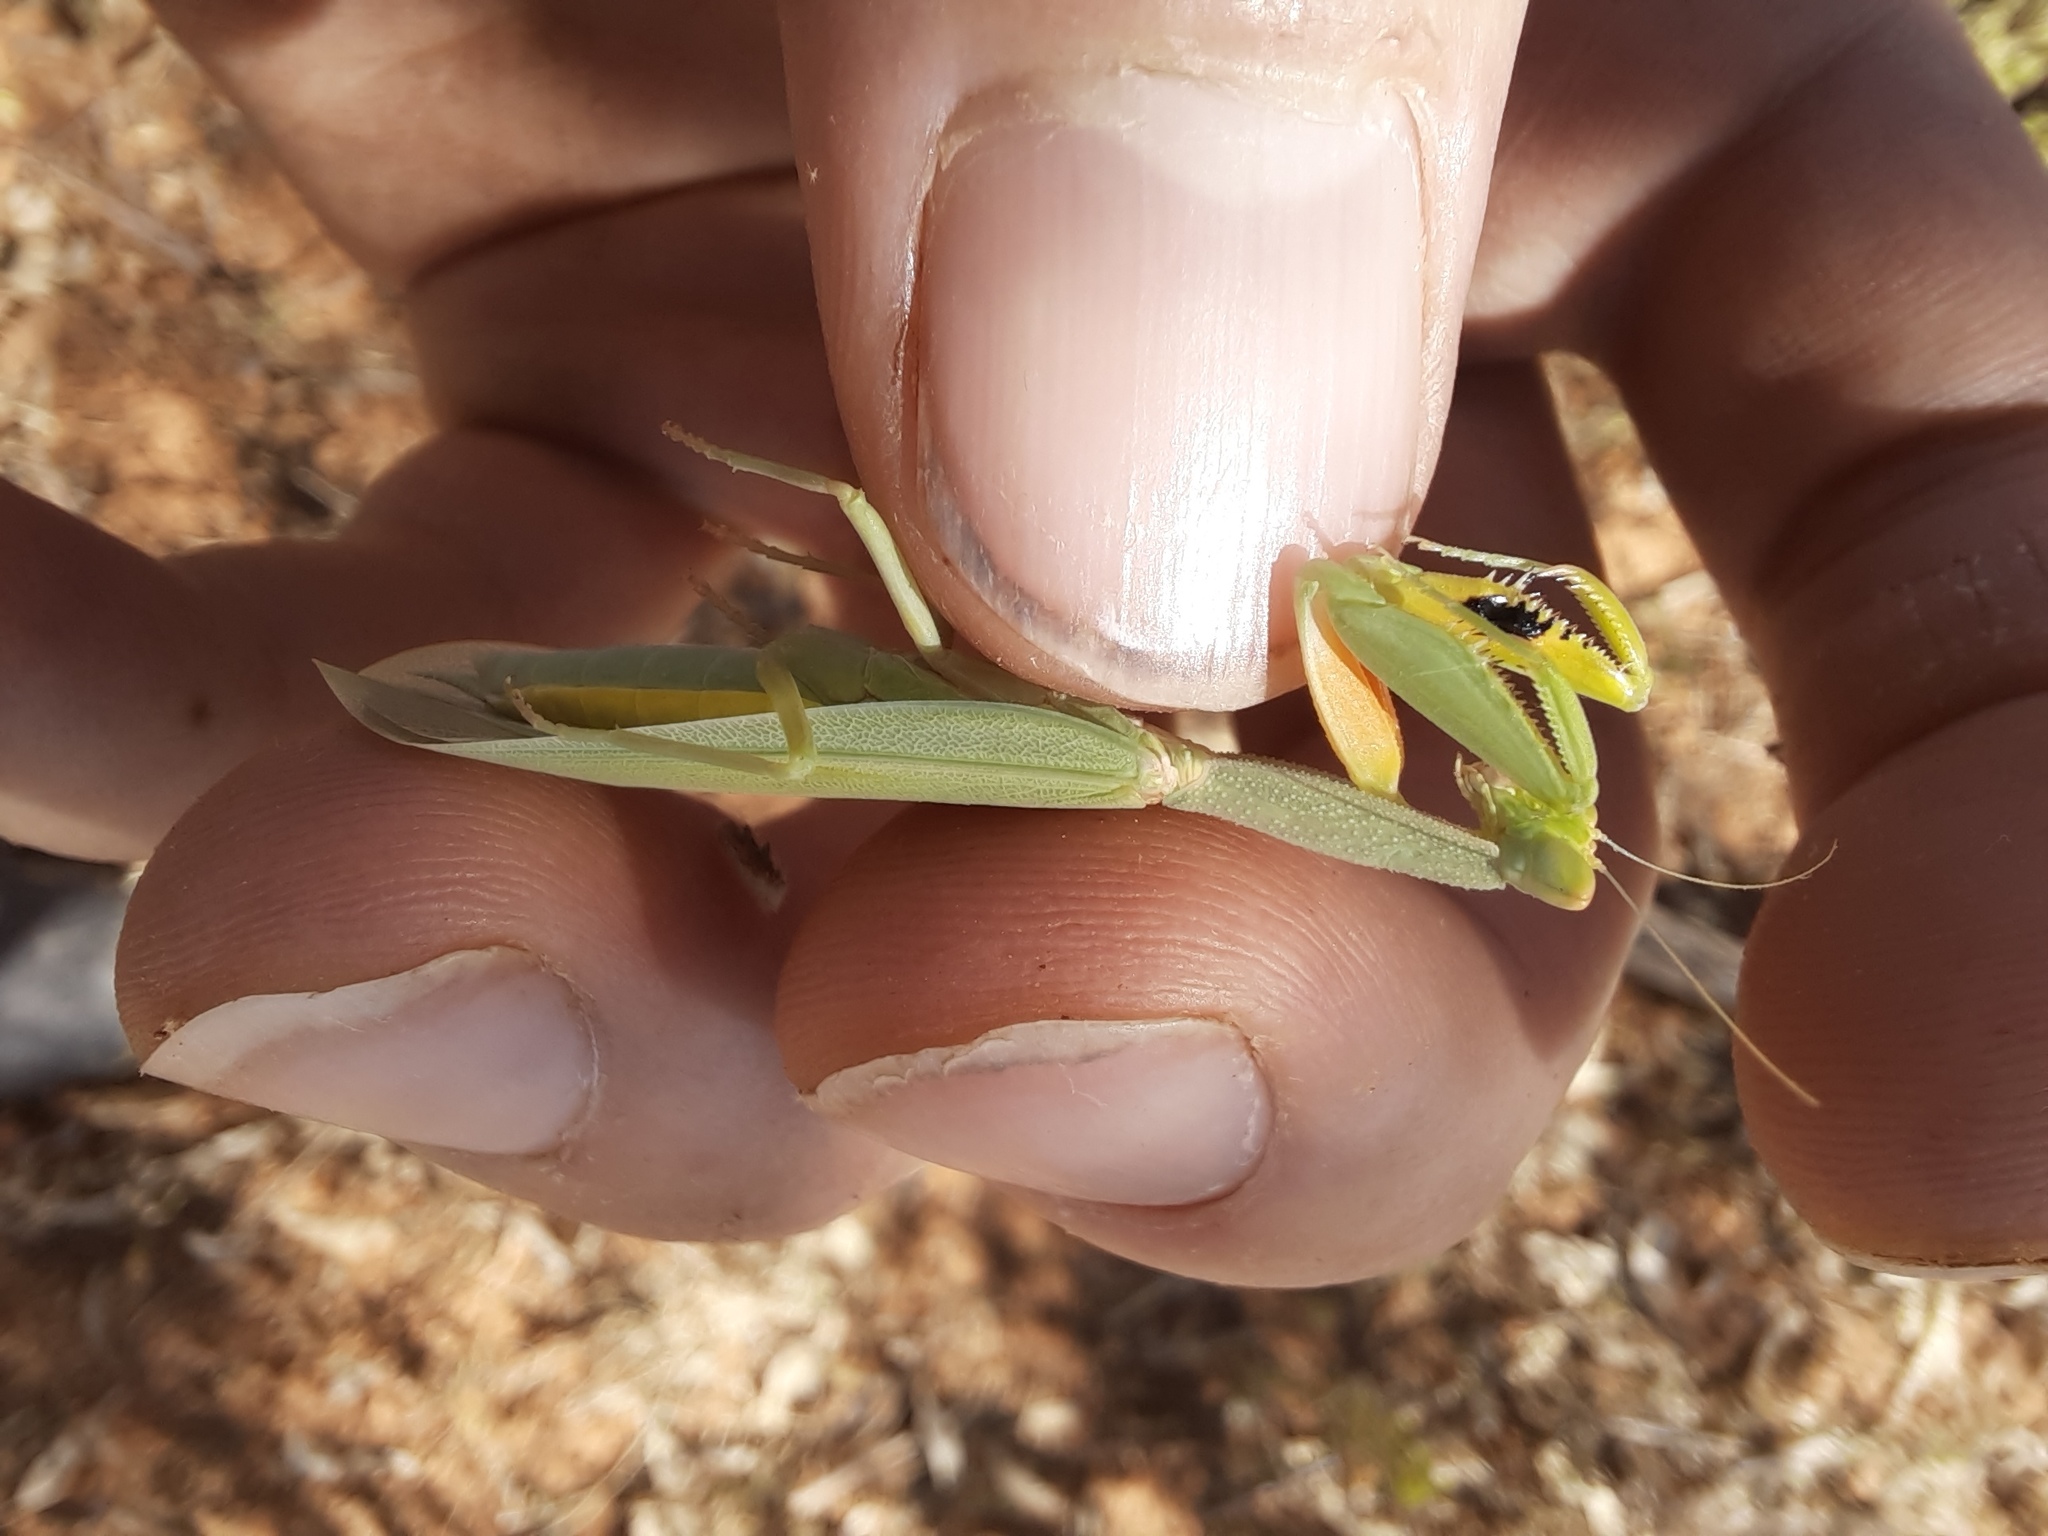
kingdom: Animalia
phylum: Arthropoda
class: Insecta
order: Mantodea
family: Mantidae
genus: Orthodera
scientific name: Orthodera australiana
